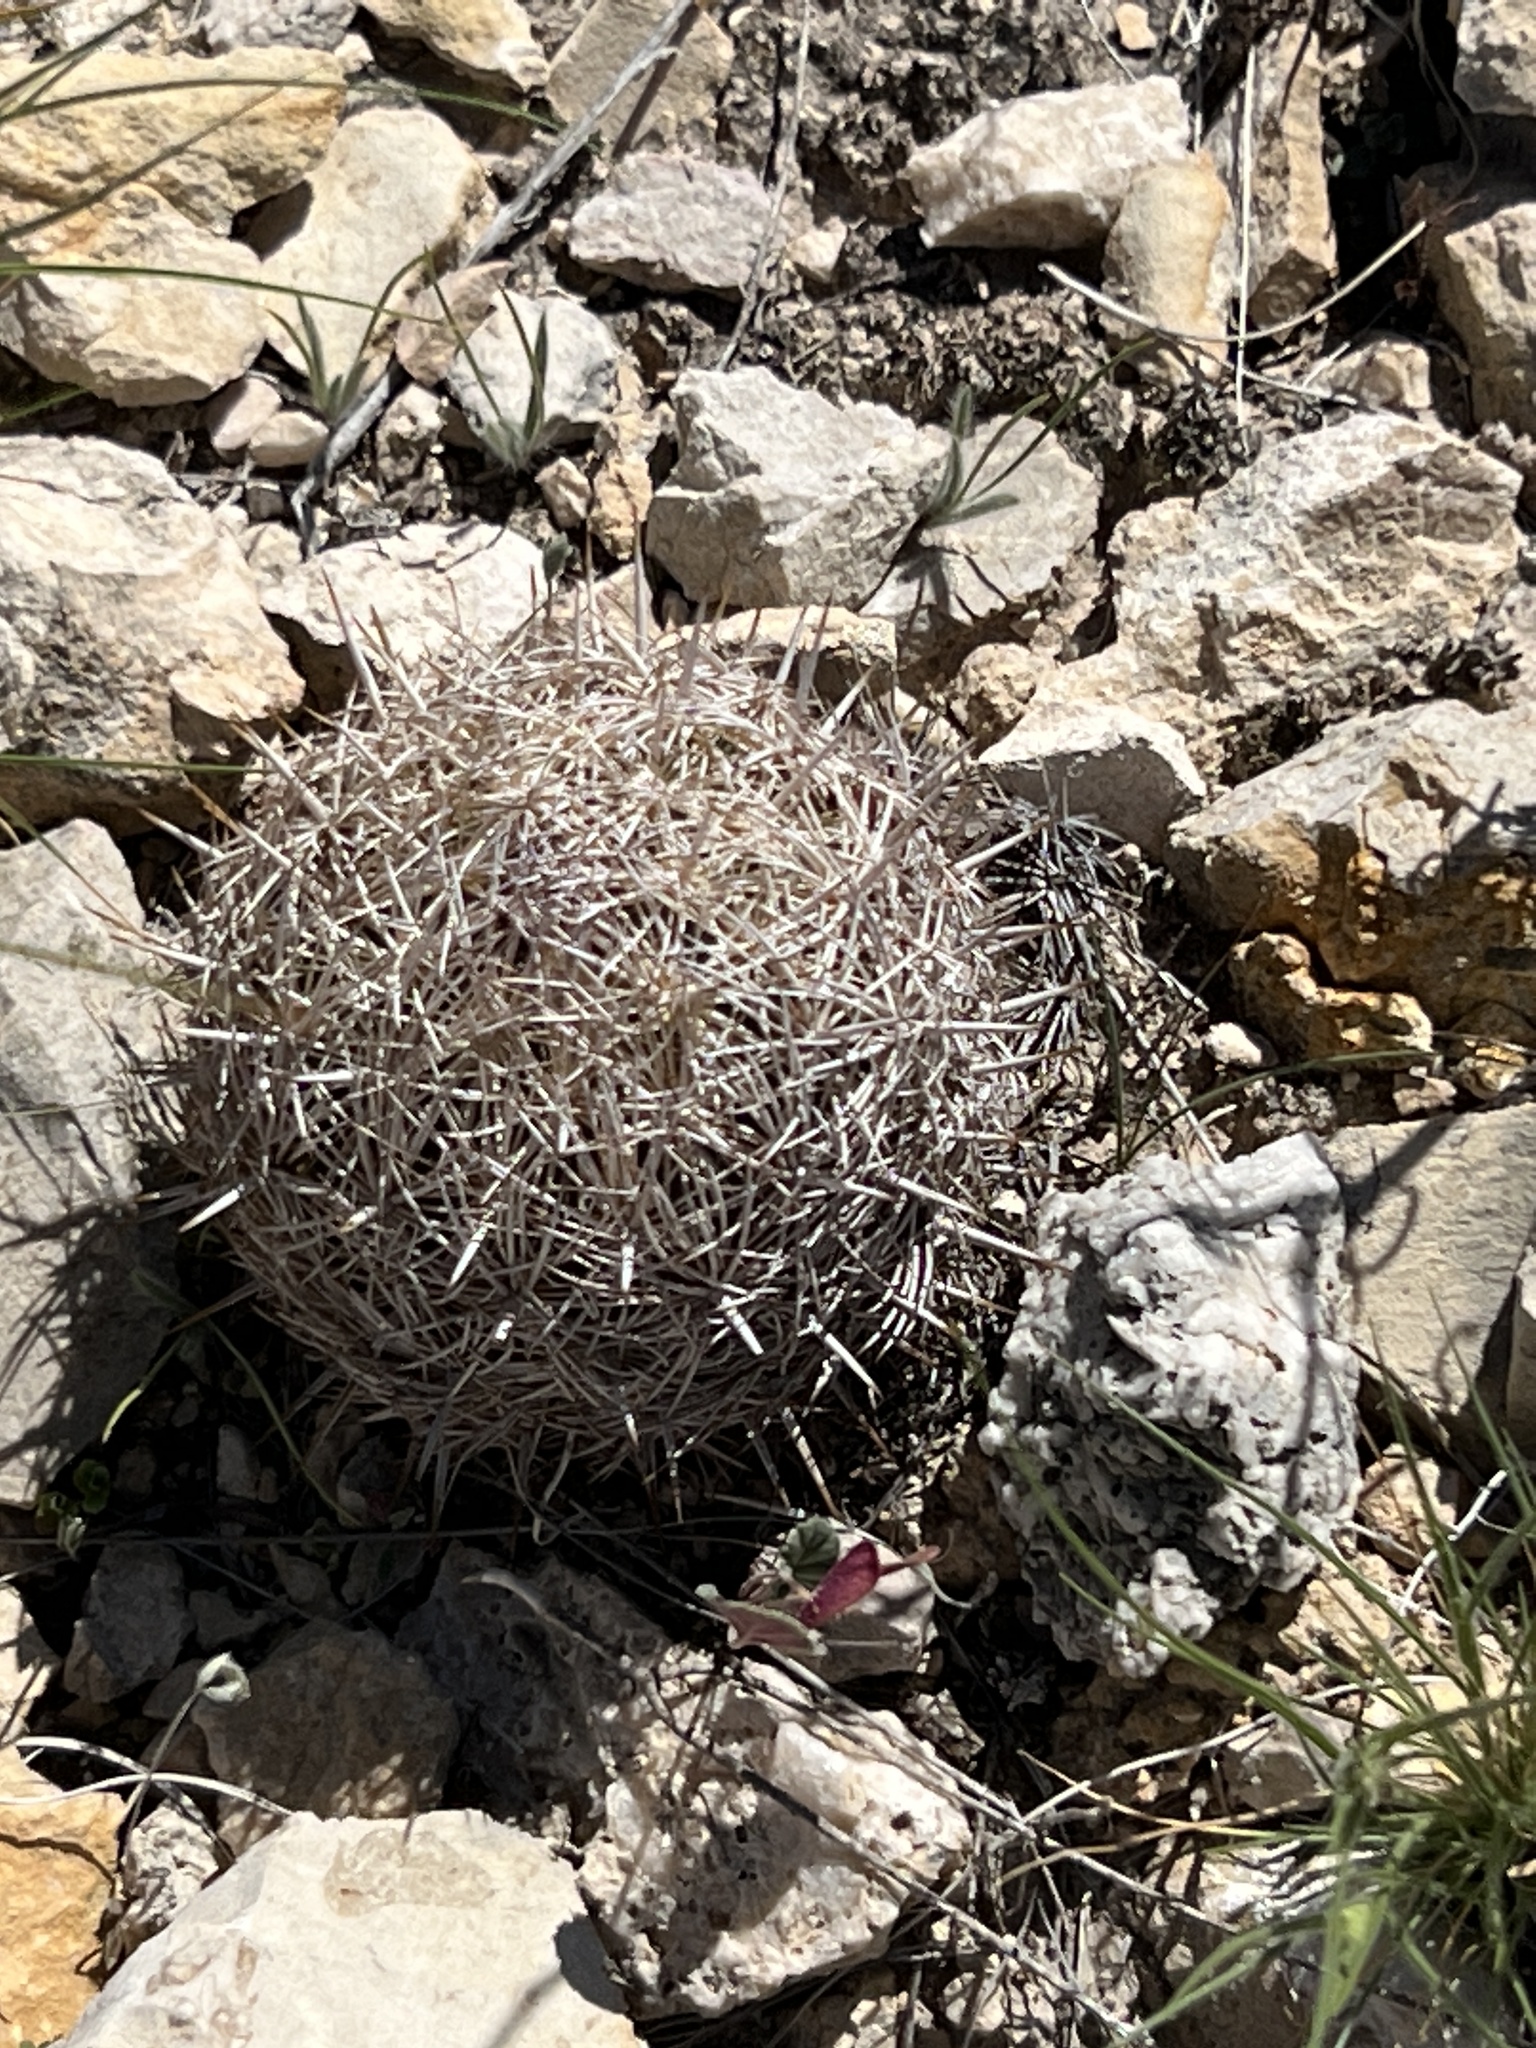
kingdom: Plantae
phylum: Tracheophyta
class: Magnoliopsida
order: Caryophyllales
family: Cactaceae
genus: Coryphantha
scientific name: Coryphantha echinus
